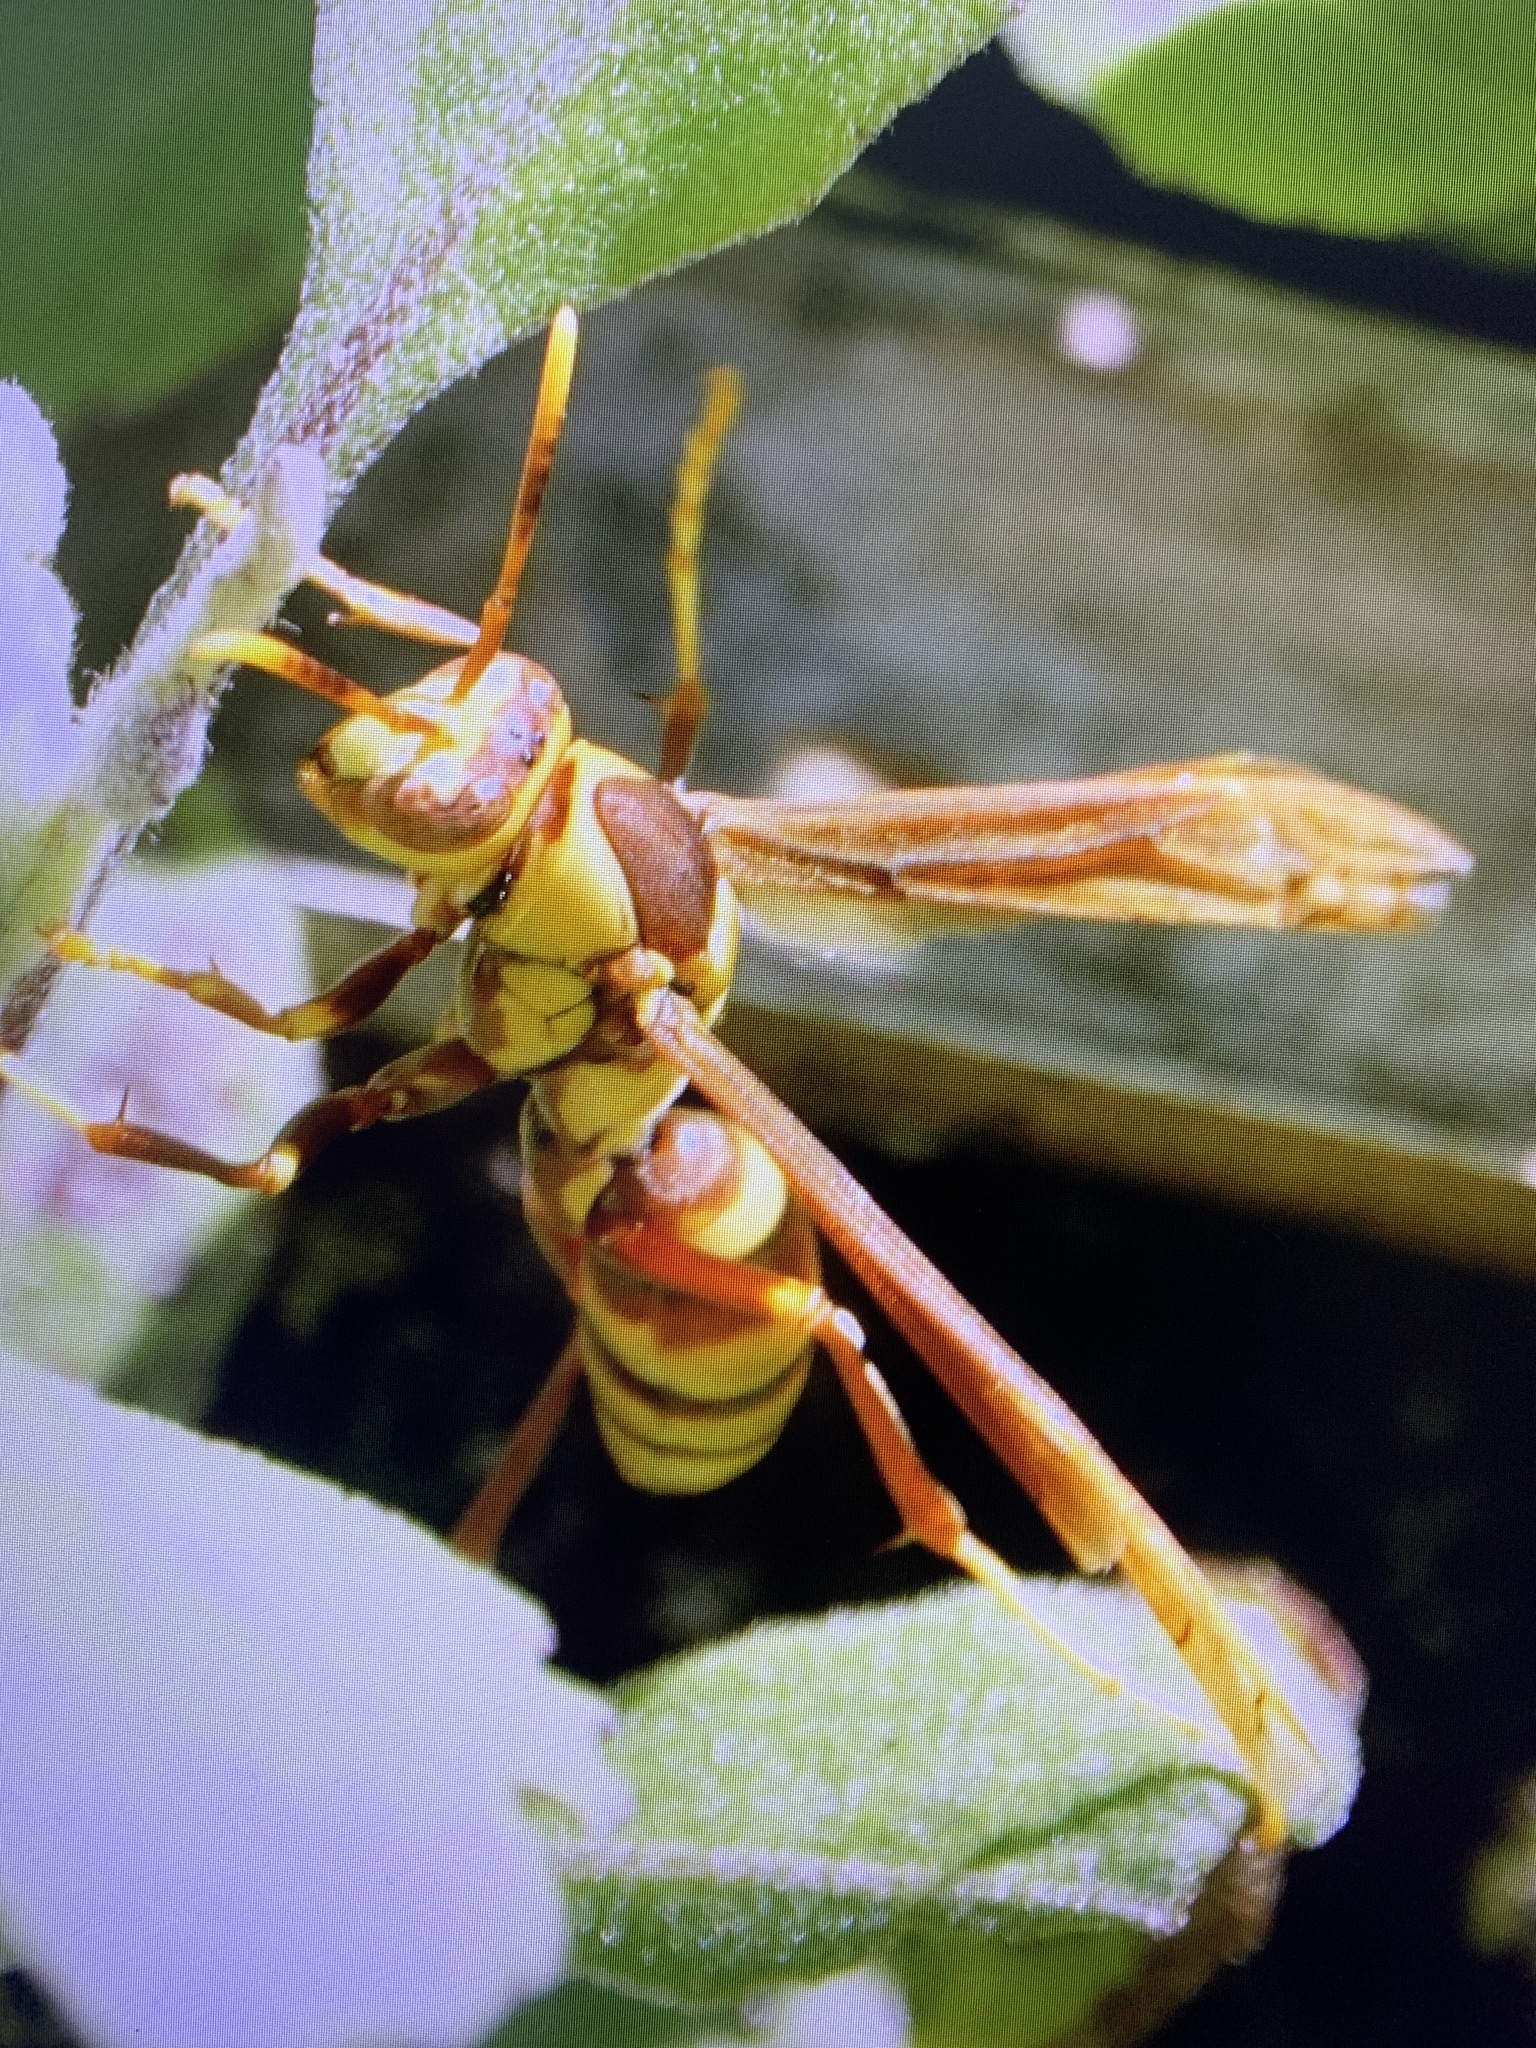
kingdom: Animalia
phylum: Arthropoda
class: Insecta
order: Hymenoptera
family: Eumenidae
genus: Polistes
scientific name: Polistes major
